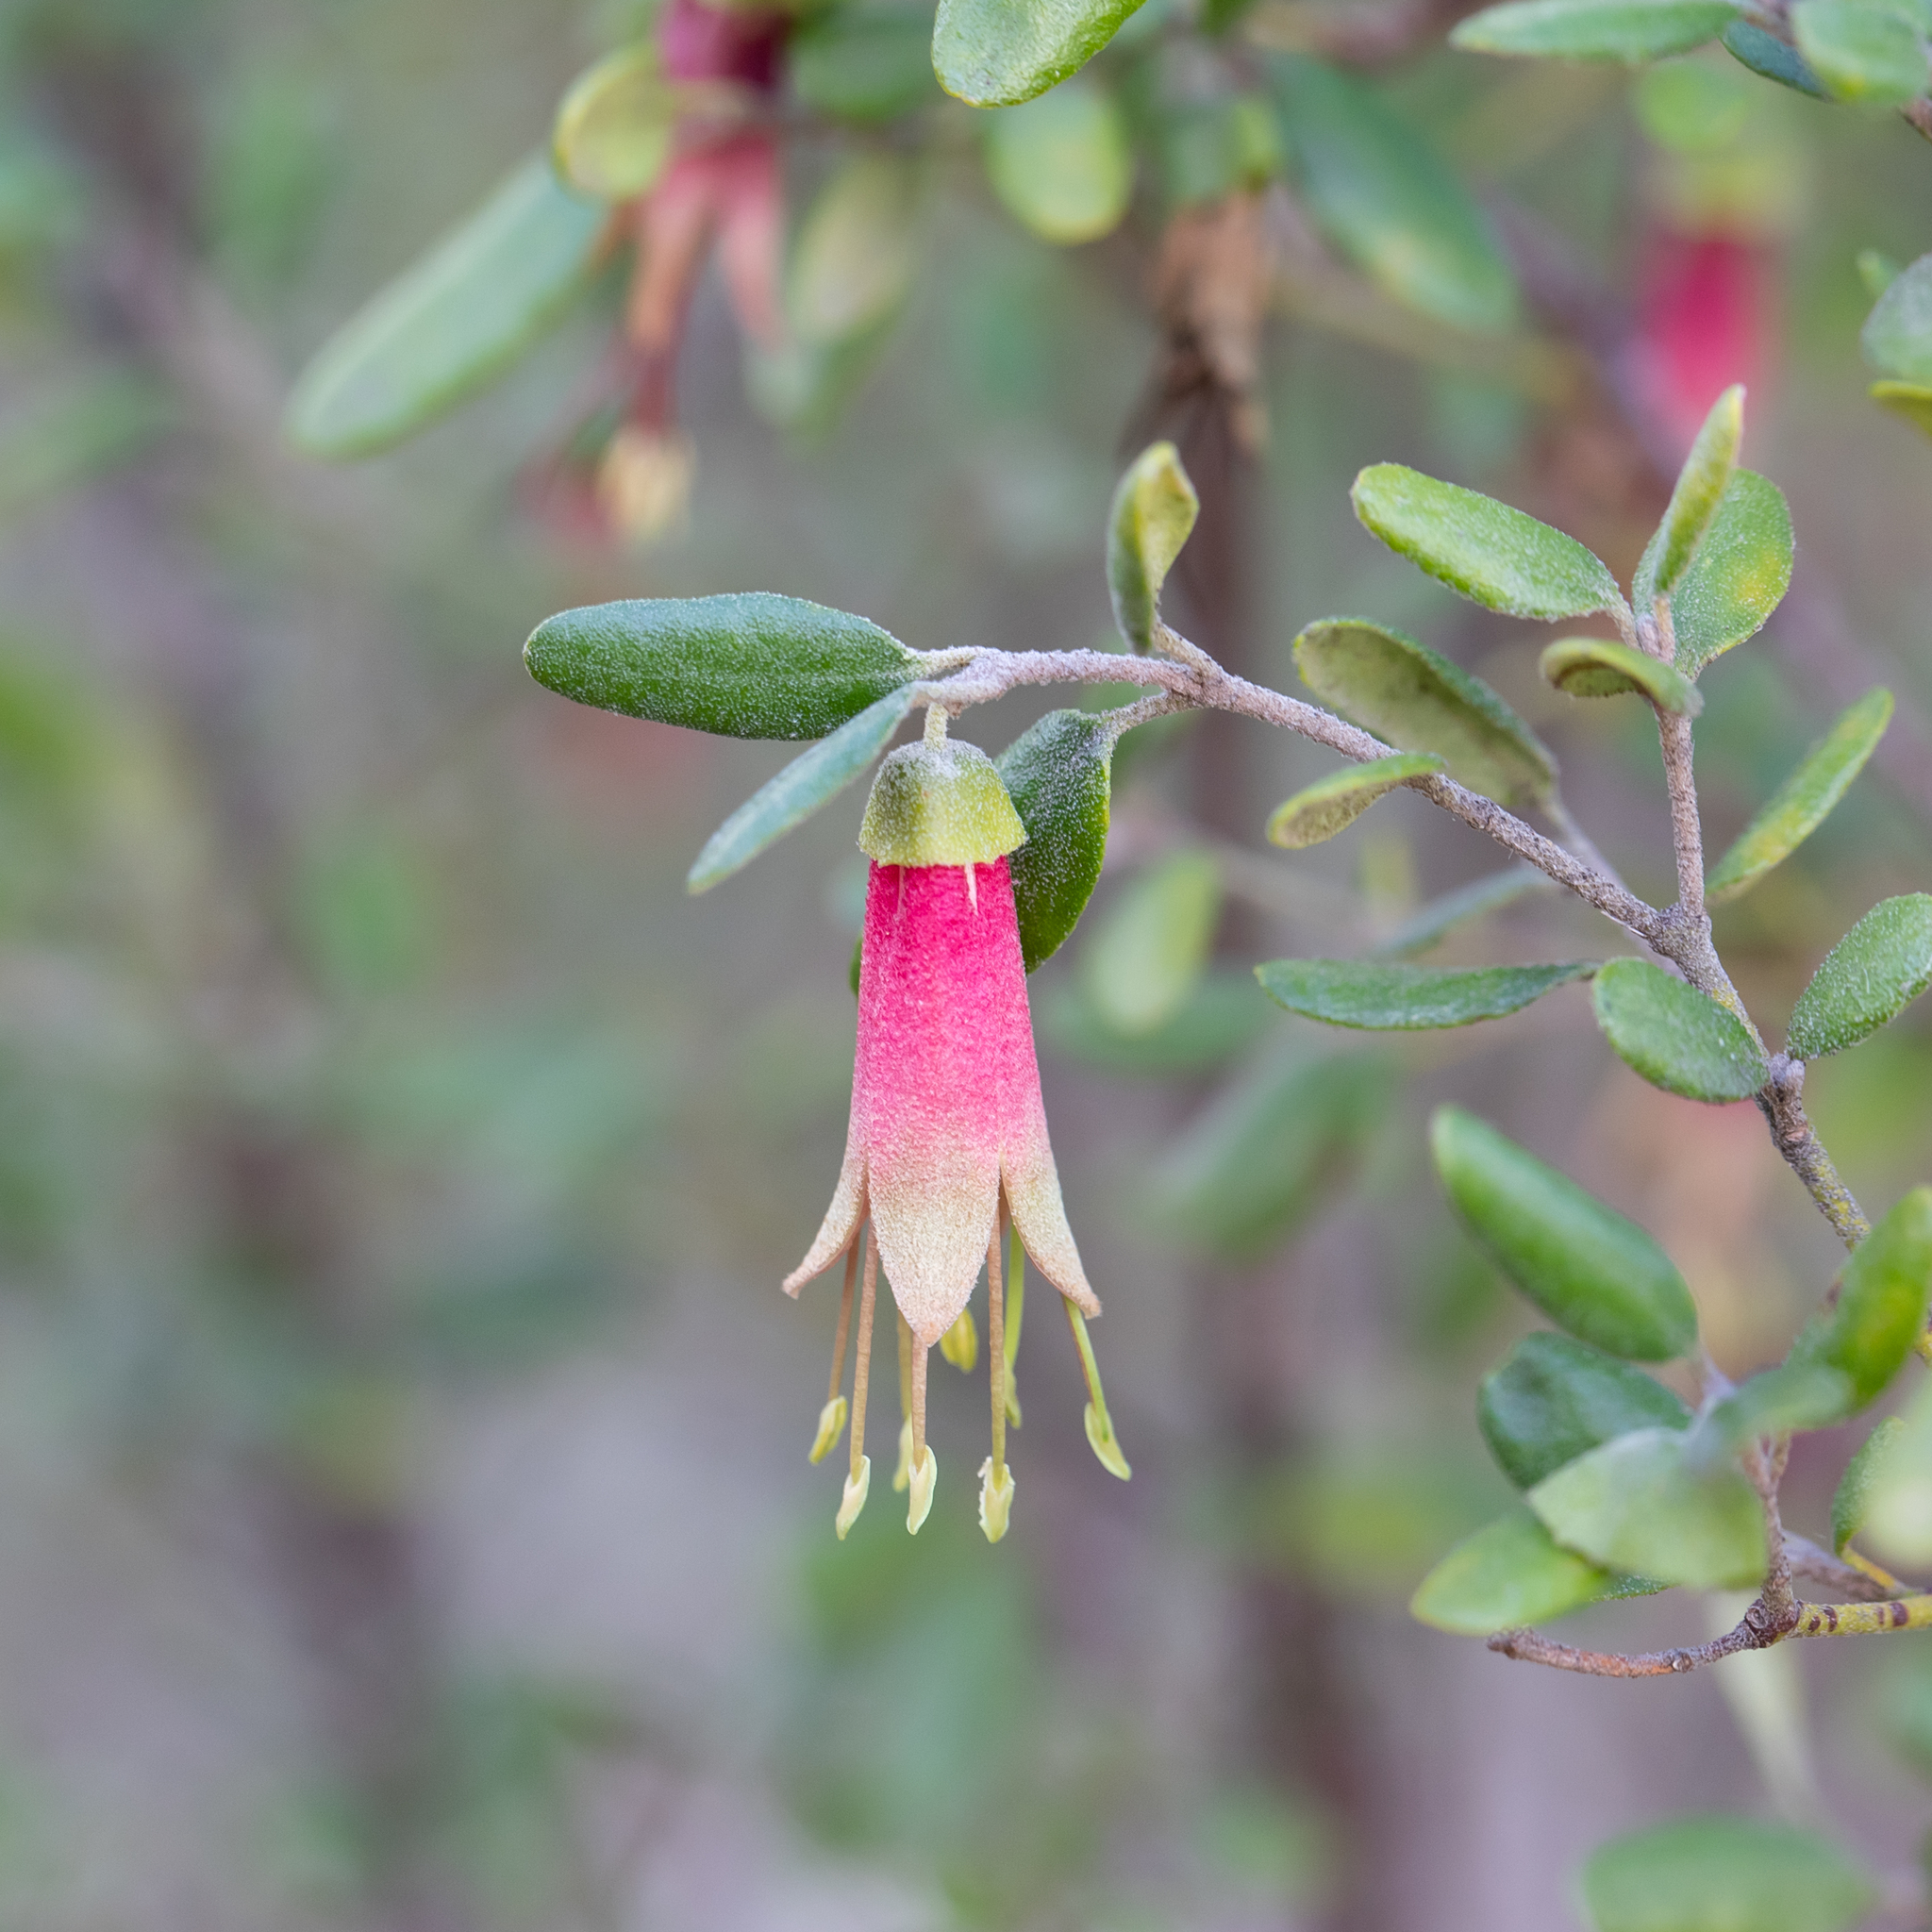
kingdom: Plantae
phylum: Tracheophyta
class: Magnoliopsida
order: Sapindales
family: Rutaceae
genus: Correa
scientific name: Correa glabra
